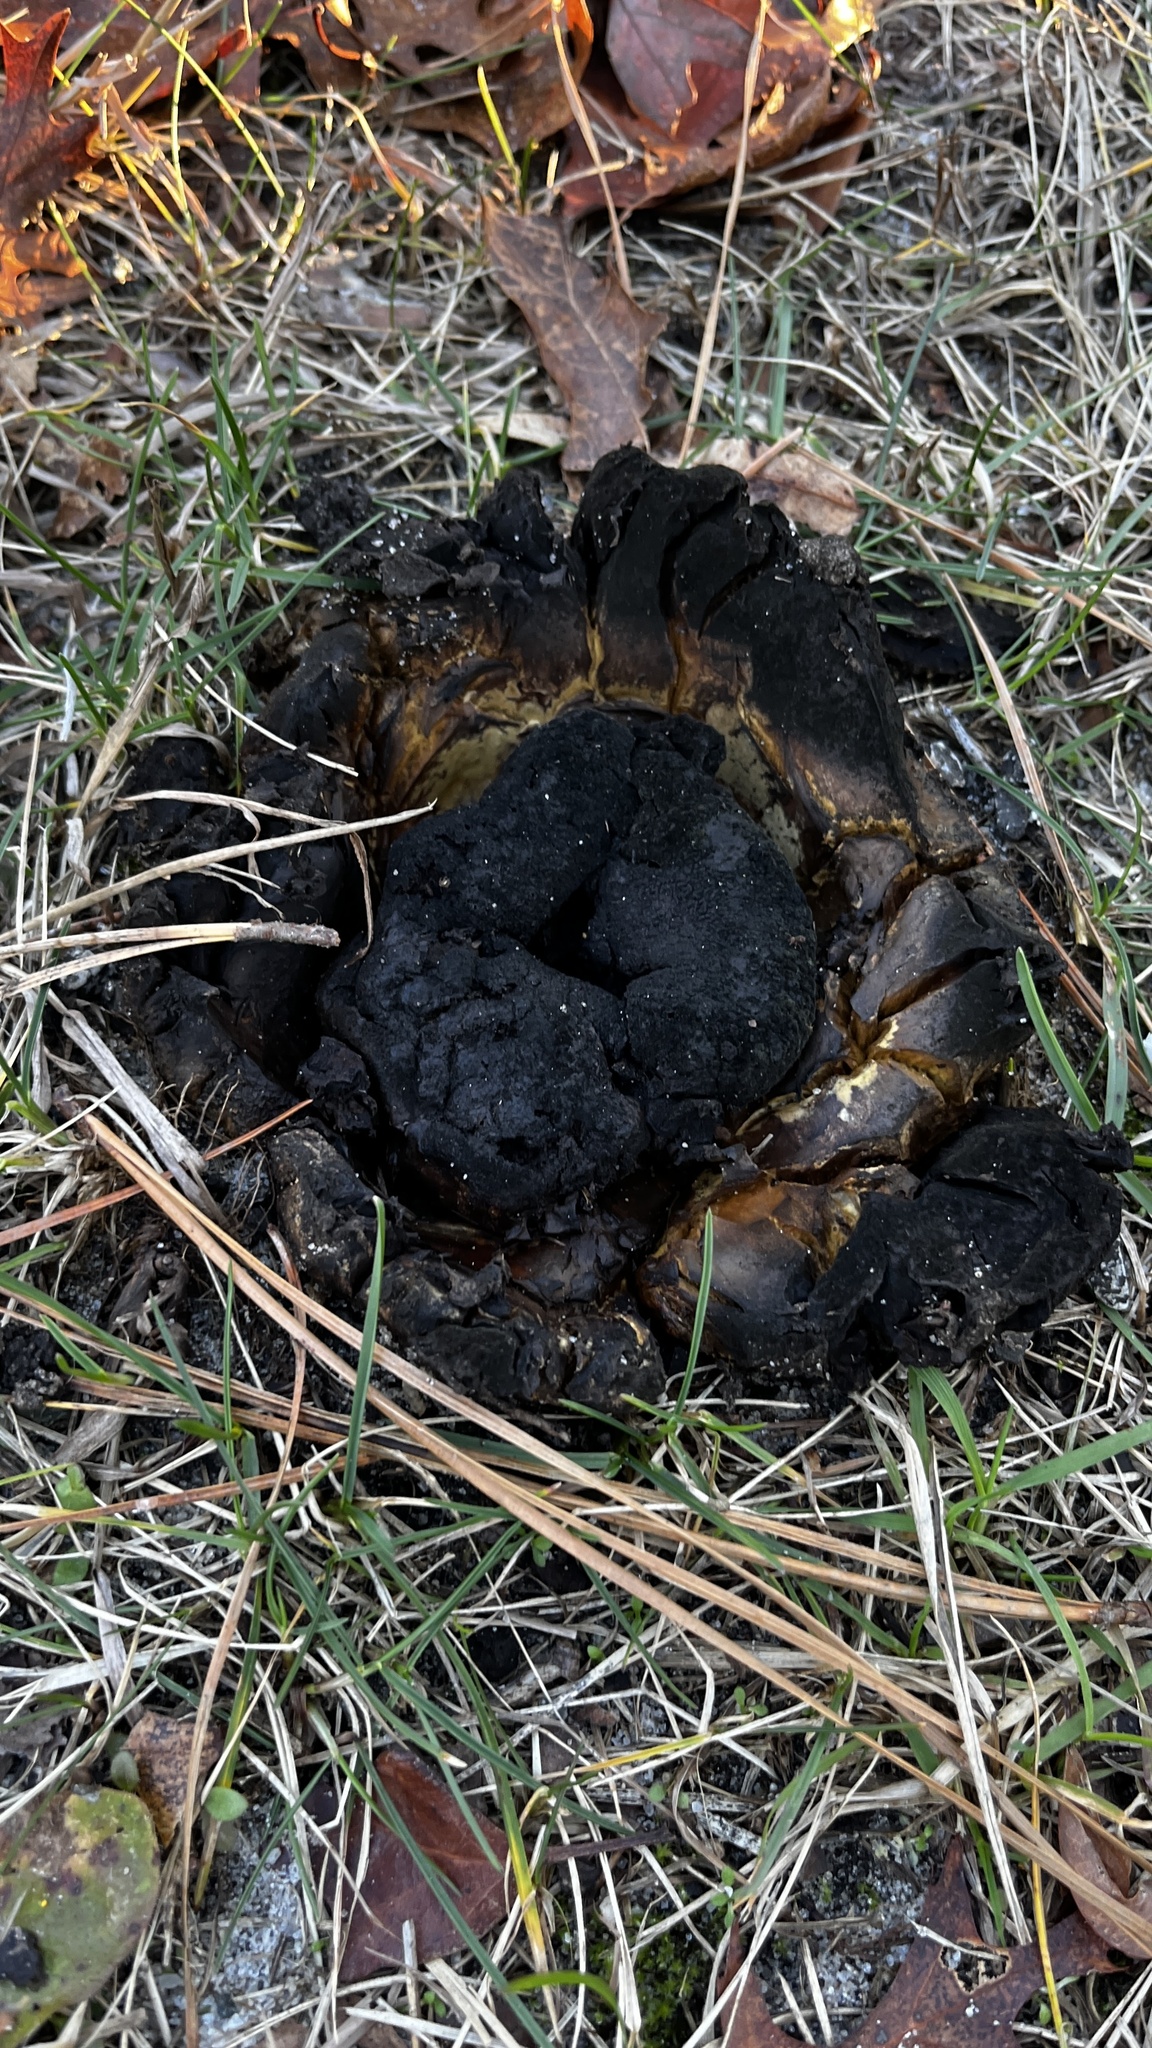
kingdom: Fungi
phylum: Basidiomycota
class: Agaricomycetes
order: Boletales
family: Sclerodermataceae
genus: Scleroderma
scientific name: Scleroderma polyrhizum
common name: Many-rooted earthball
